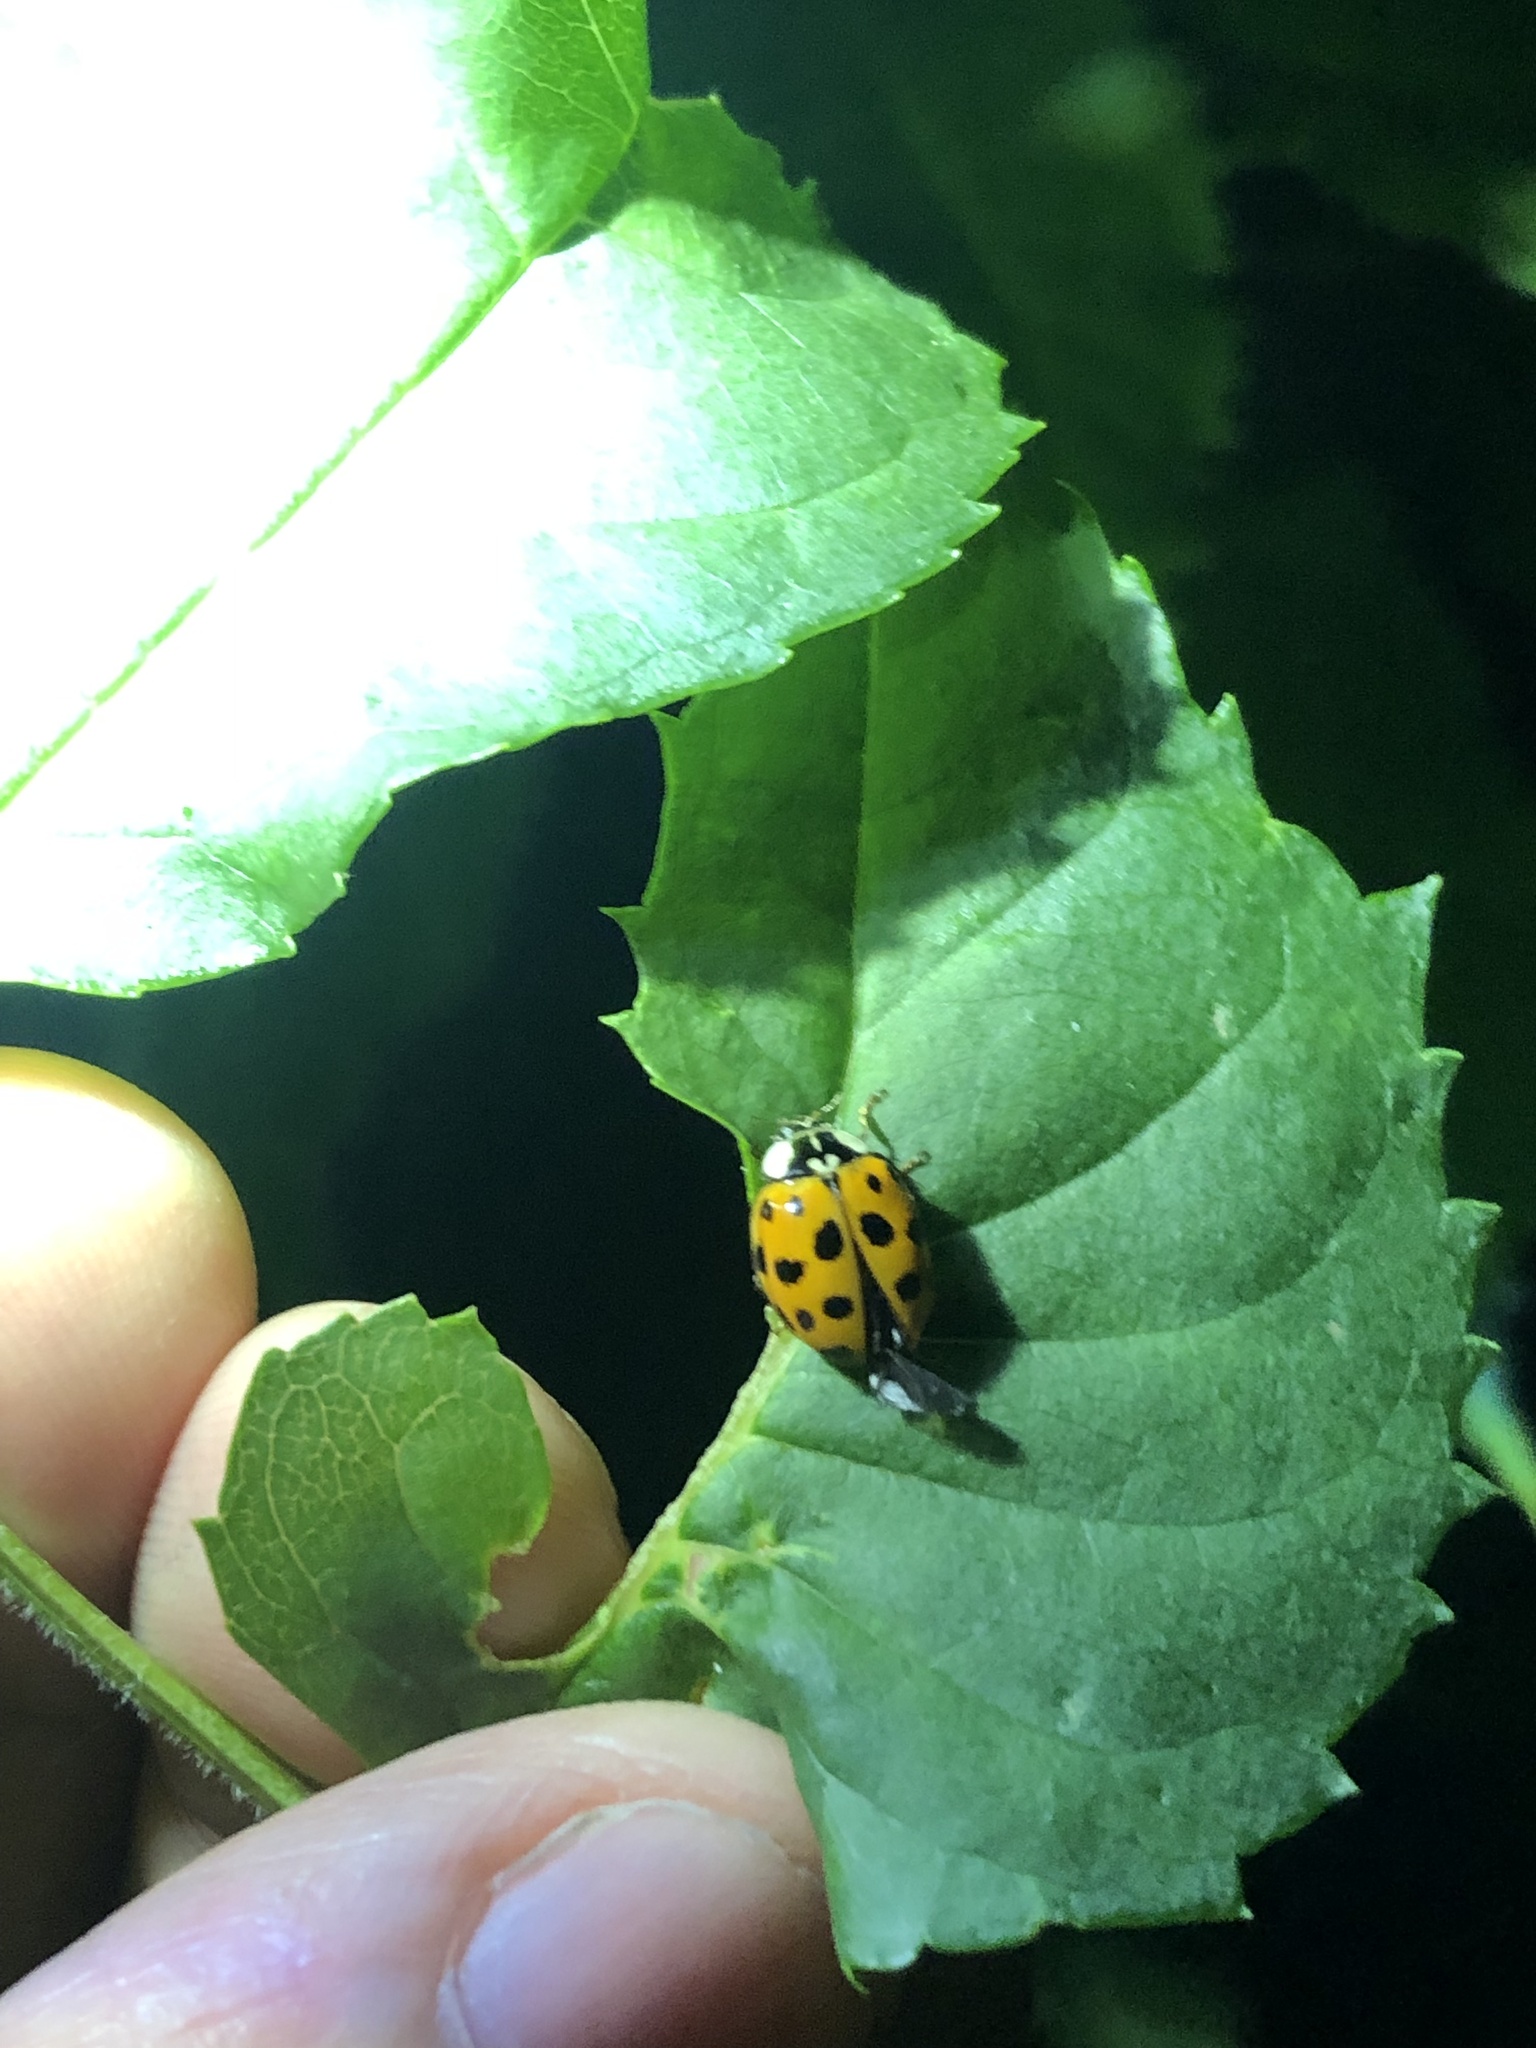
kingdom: Animalia
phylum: Arthropoda
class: Insecta
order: Coleoptera
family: Coccinellidae
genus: Harmonia
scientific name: Harmonia axyridis
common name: Harlequin ladybird
